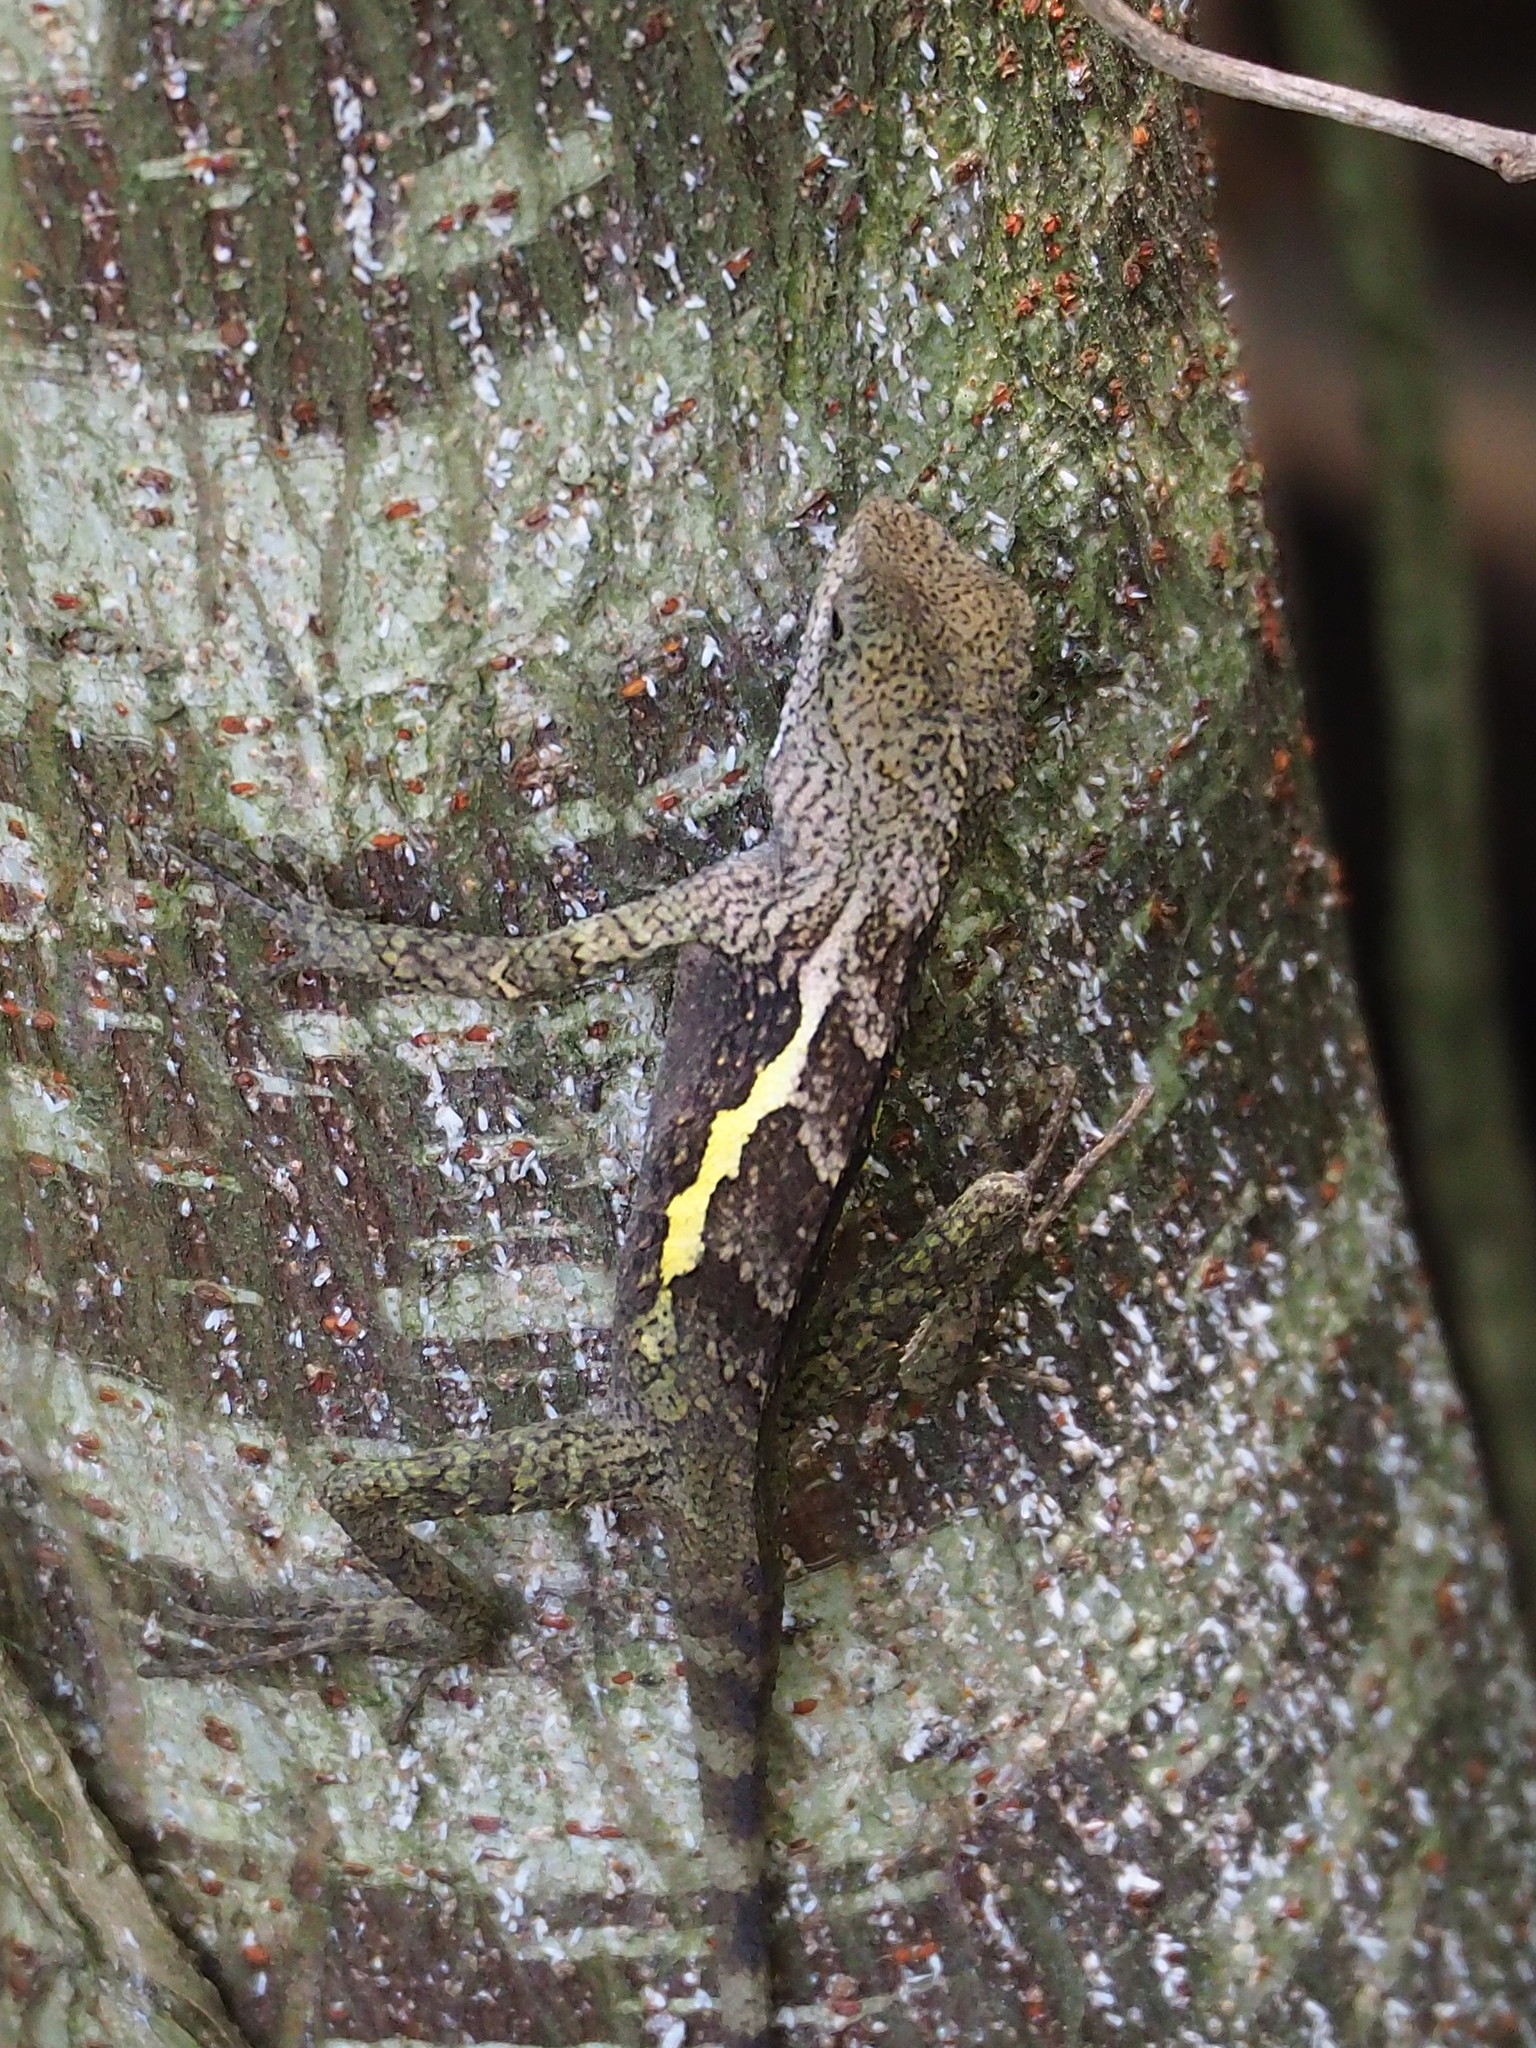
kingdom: Animalia
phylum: Chordata
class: Squamata
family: Agamidae
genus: Diploderma
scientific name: Diploderma swinhonis
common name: Taiwan japalure
